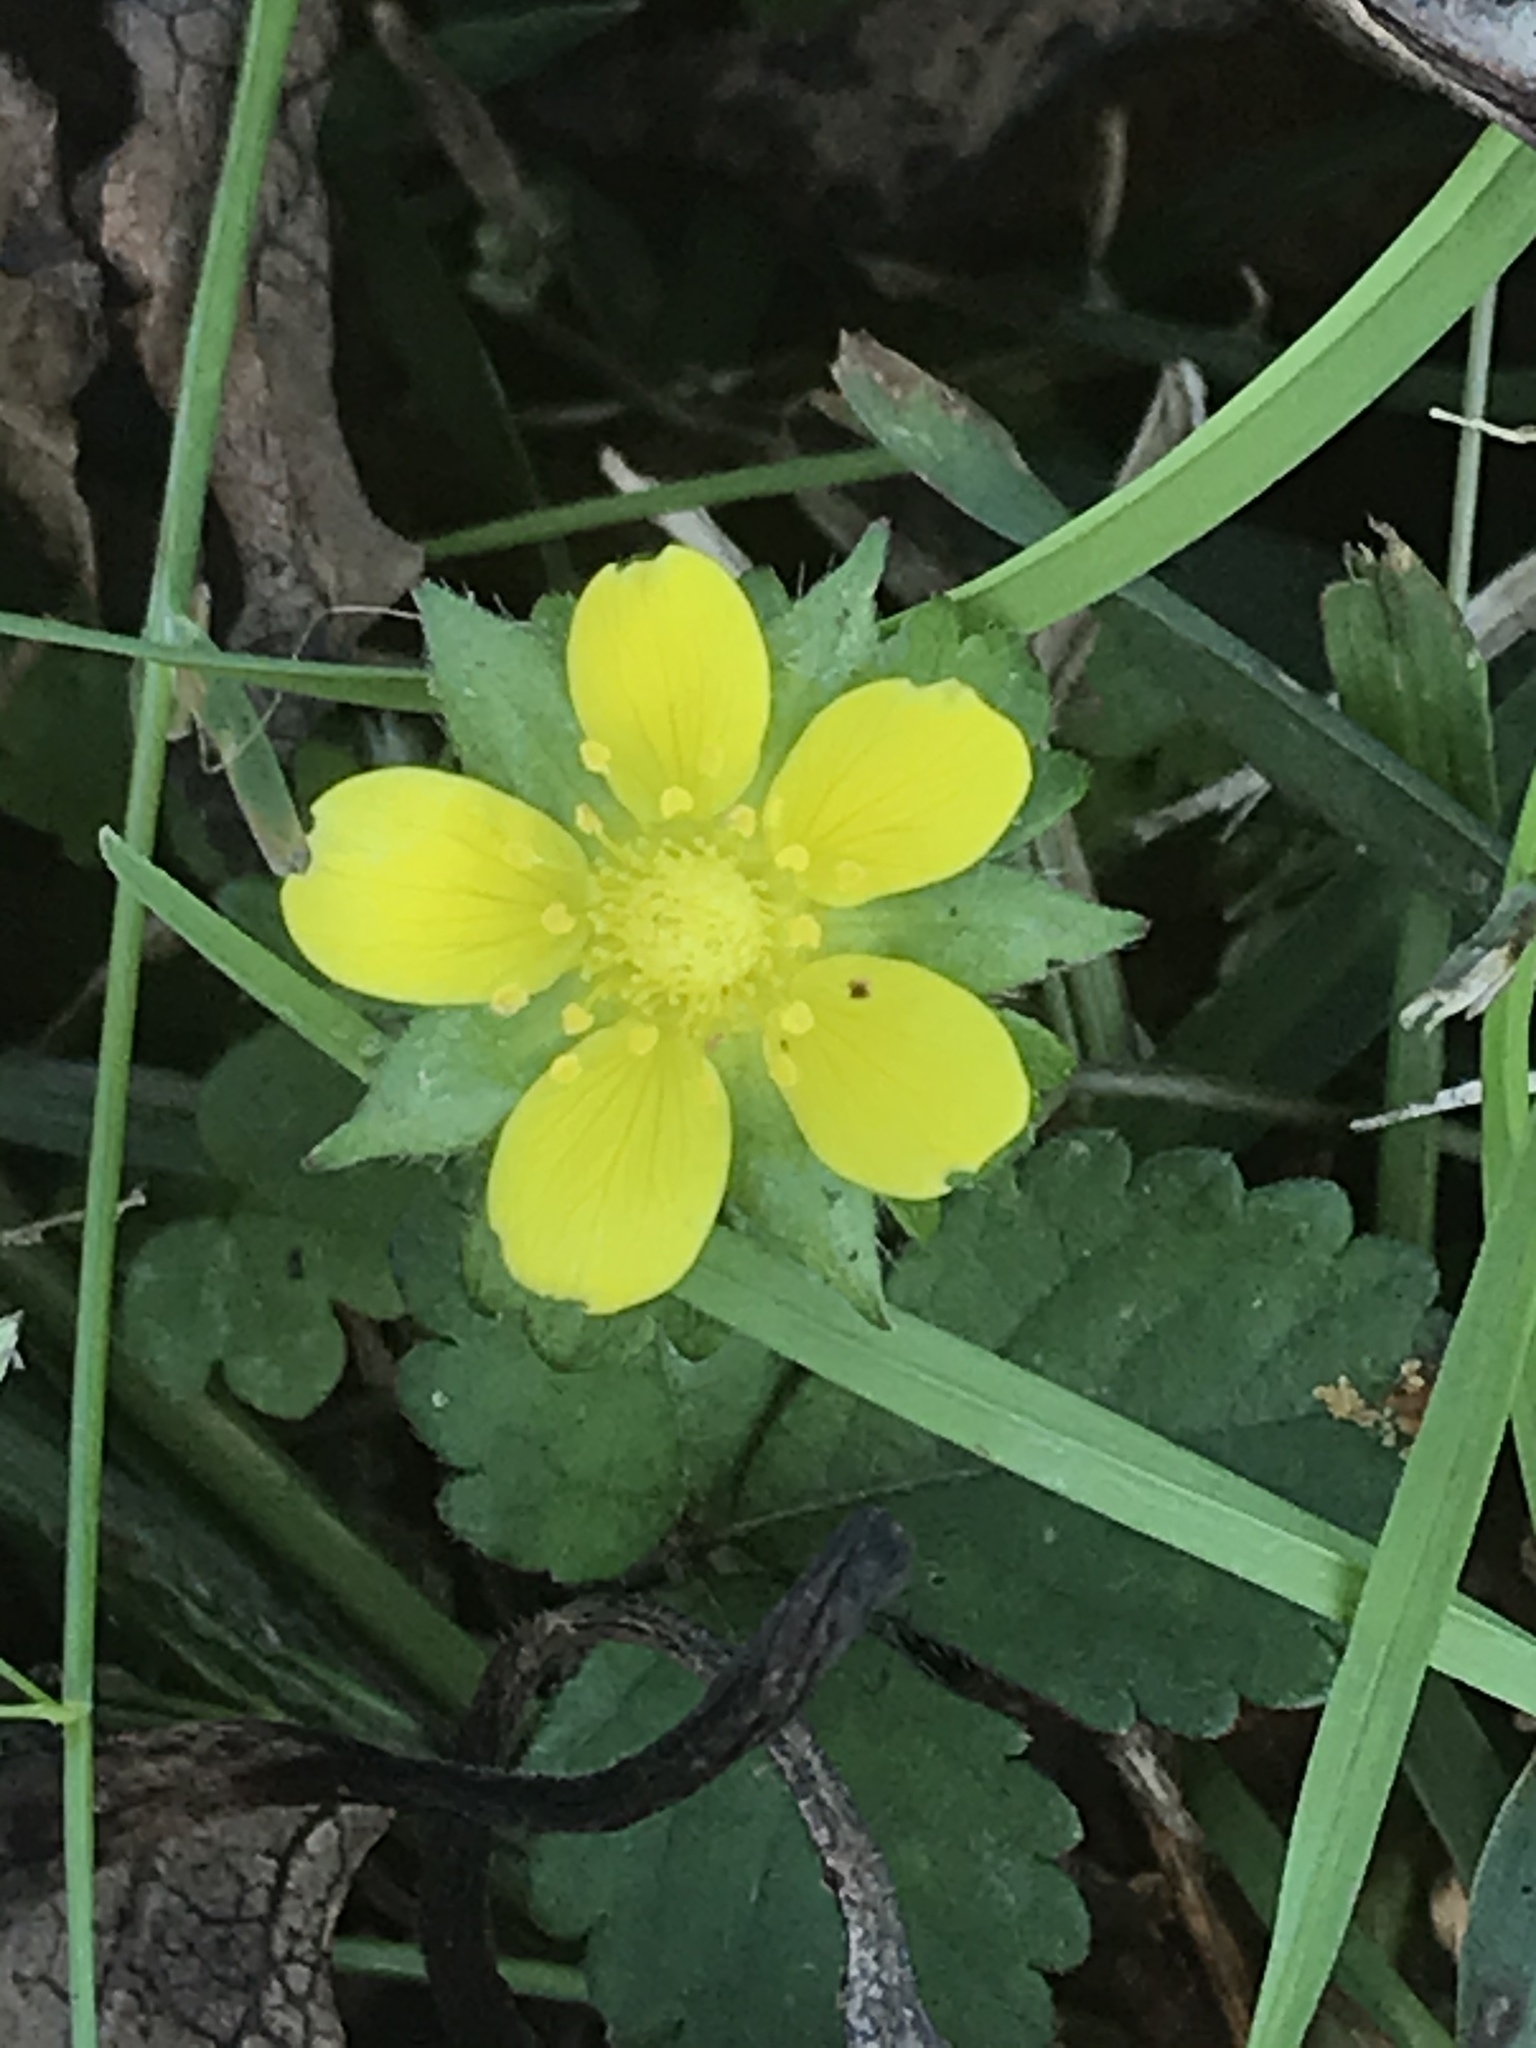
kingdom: Plantae
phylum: Tracheophyta
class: Magnoliopsida
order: Rosales
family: Rosaceae
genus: Potentilla
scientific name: Potentilla indica
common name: Yellow-flowered strawberry
